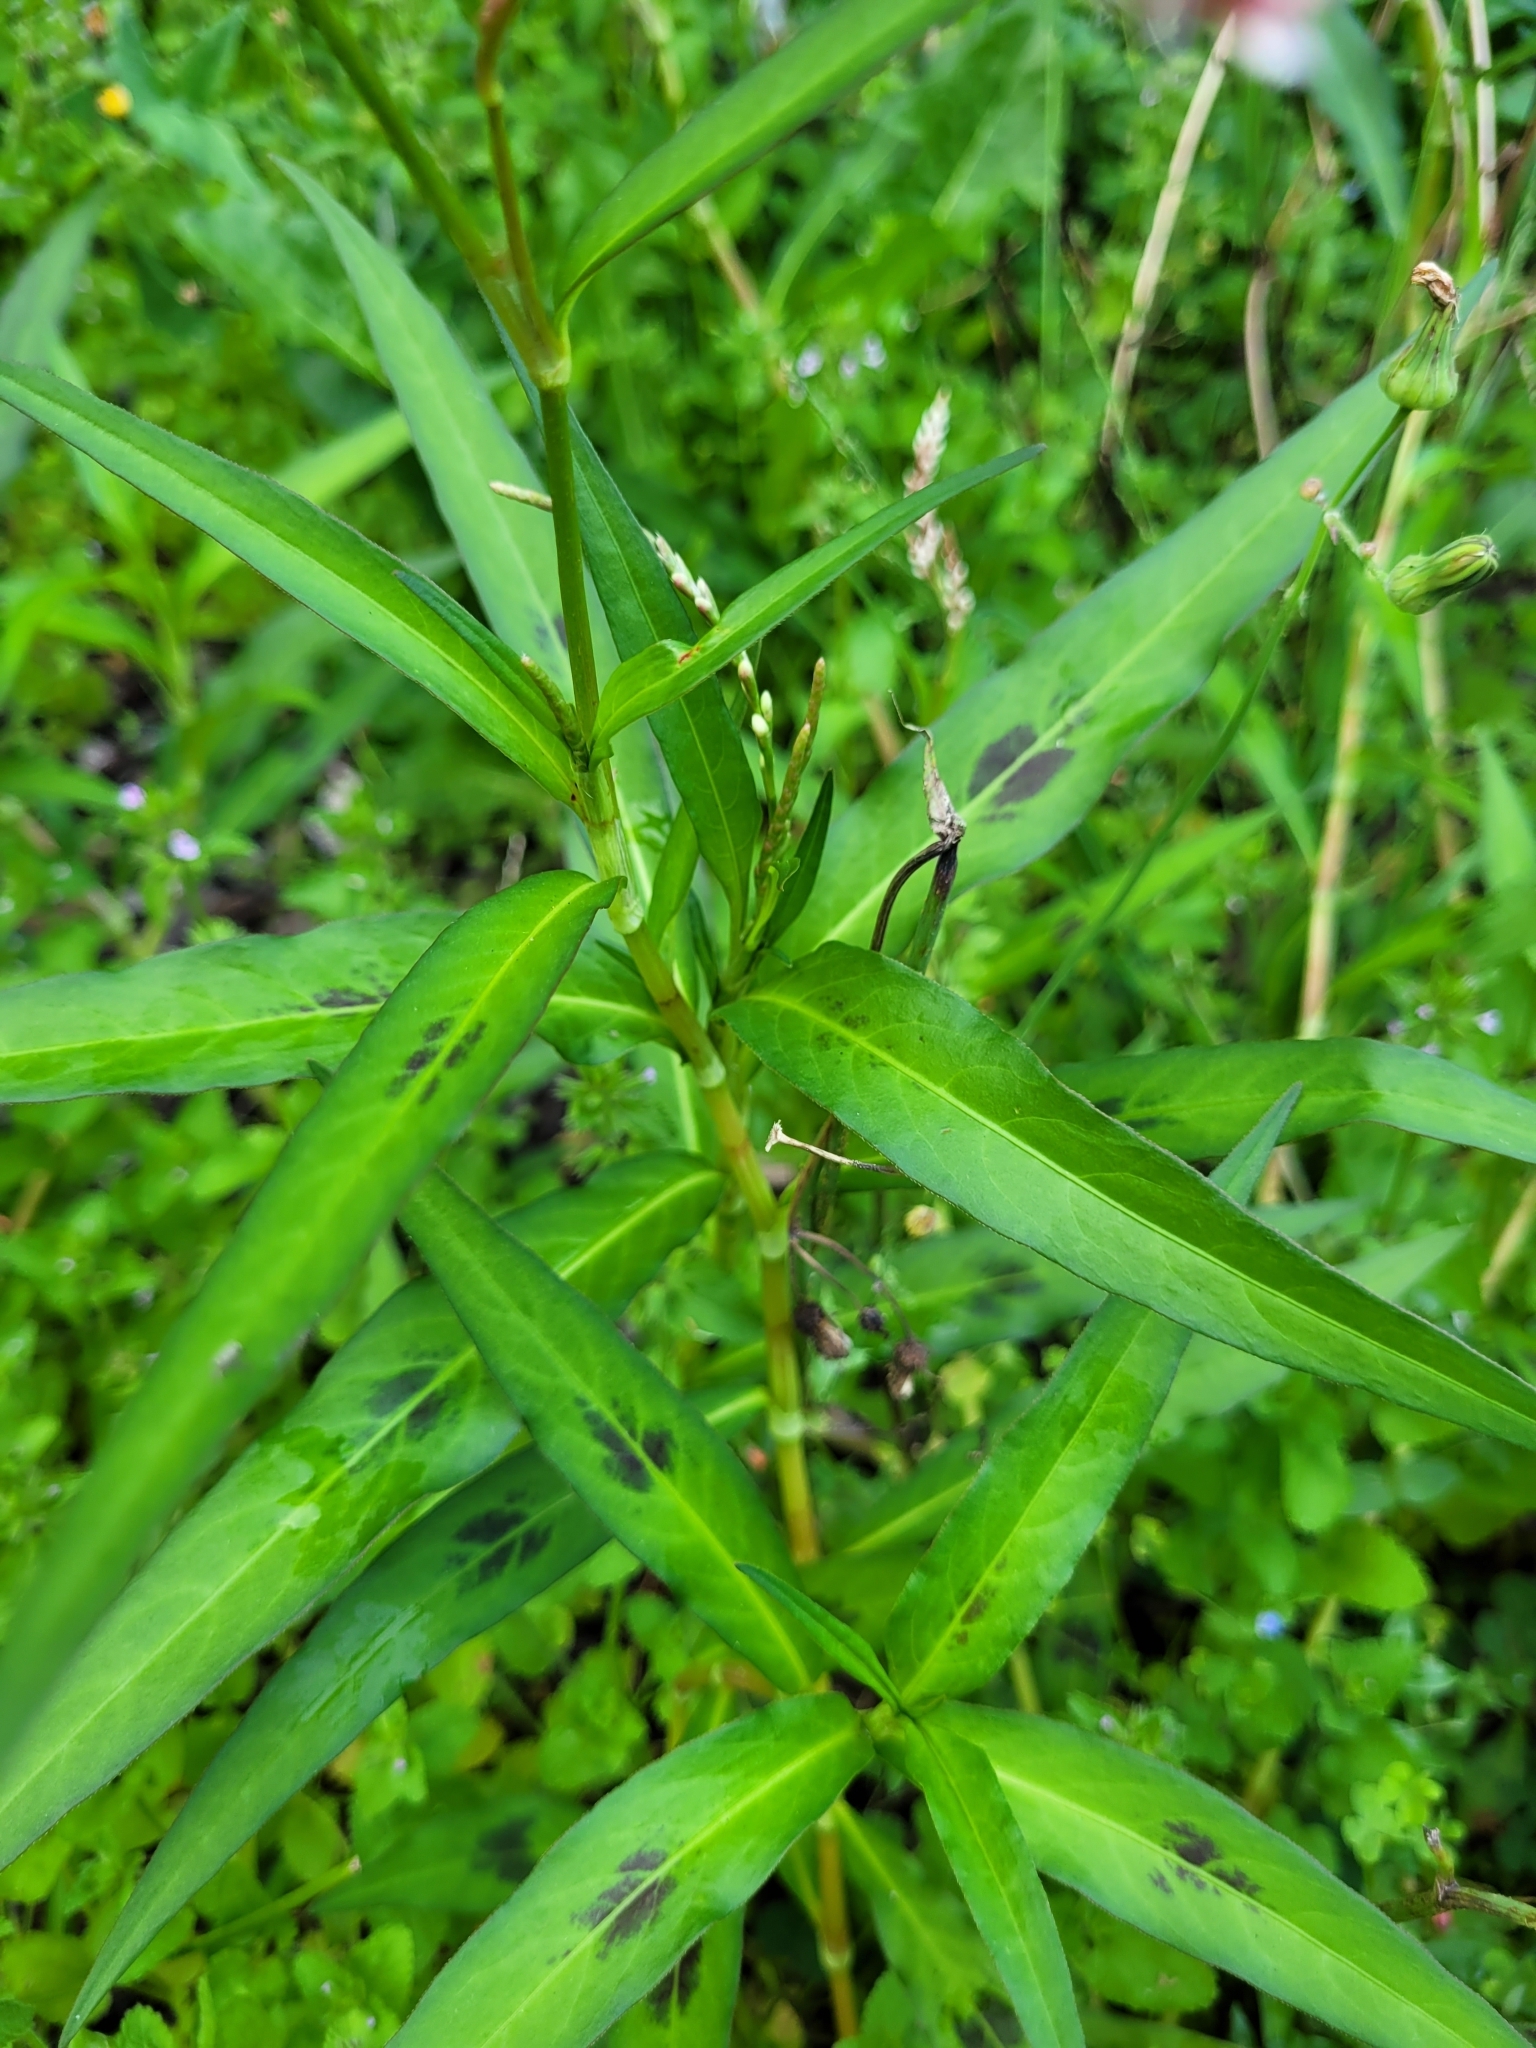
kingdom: Plantae
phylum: Tracheophyta
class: Magnoliopsida
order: Caryophyllales
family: Polygonaceae
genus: Persicaria
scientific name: Persicaria decipiens
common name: Willow-weed
